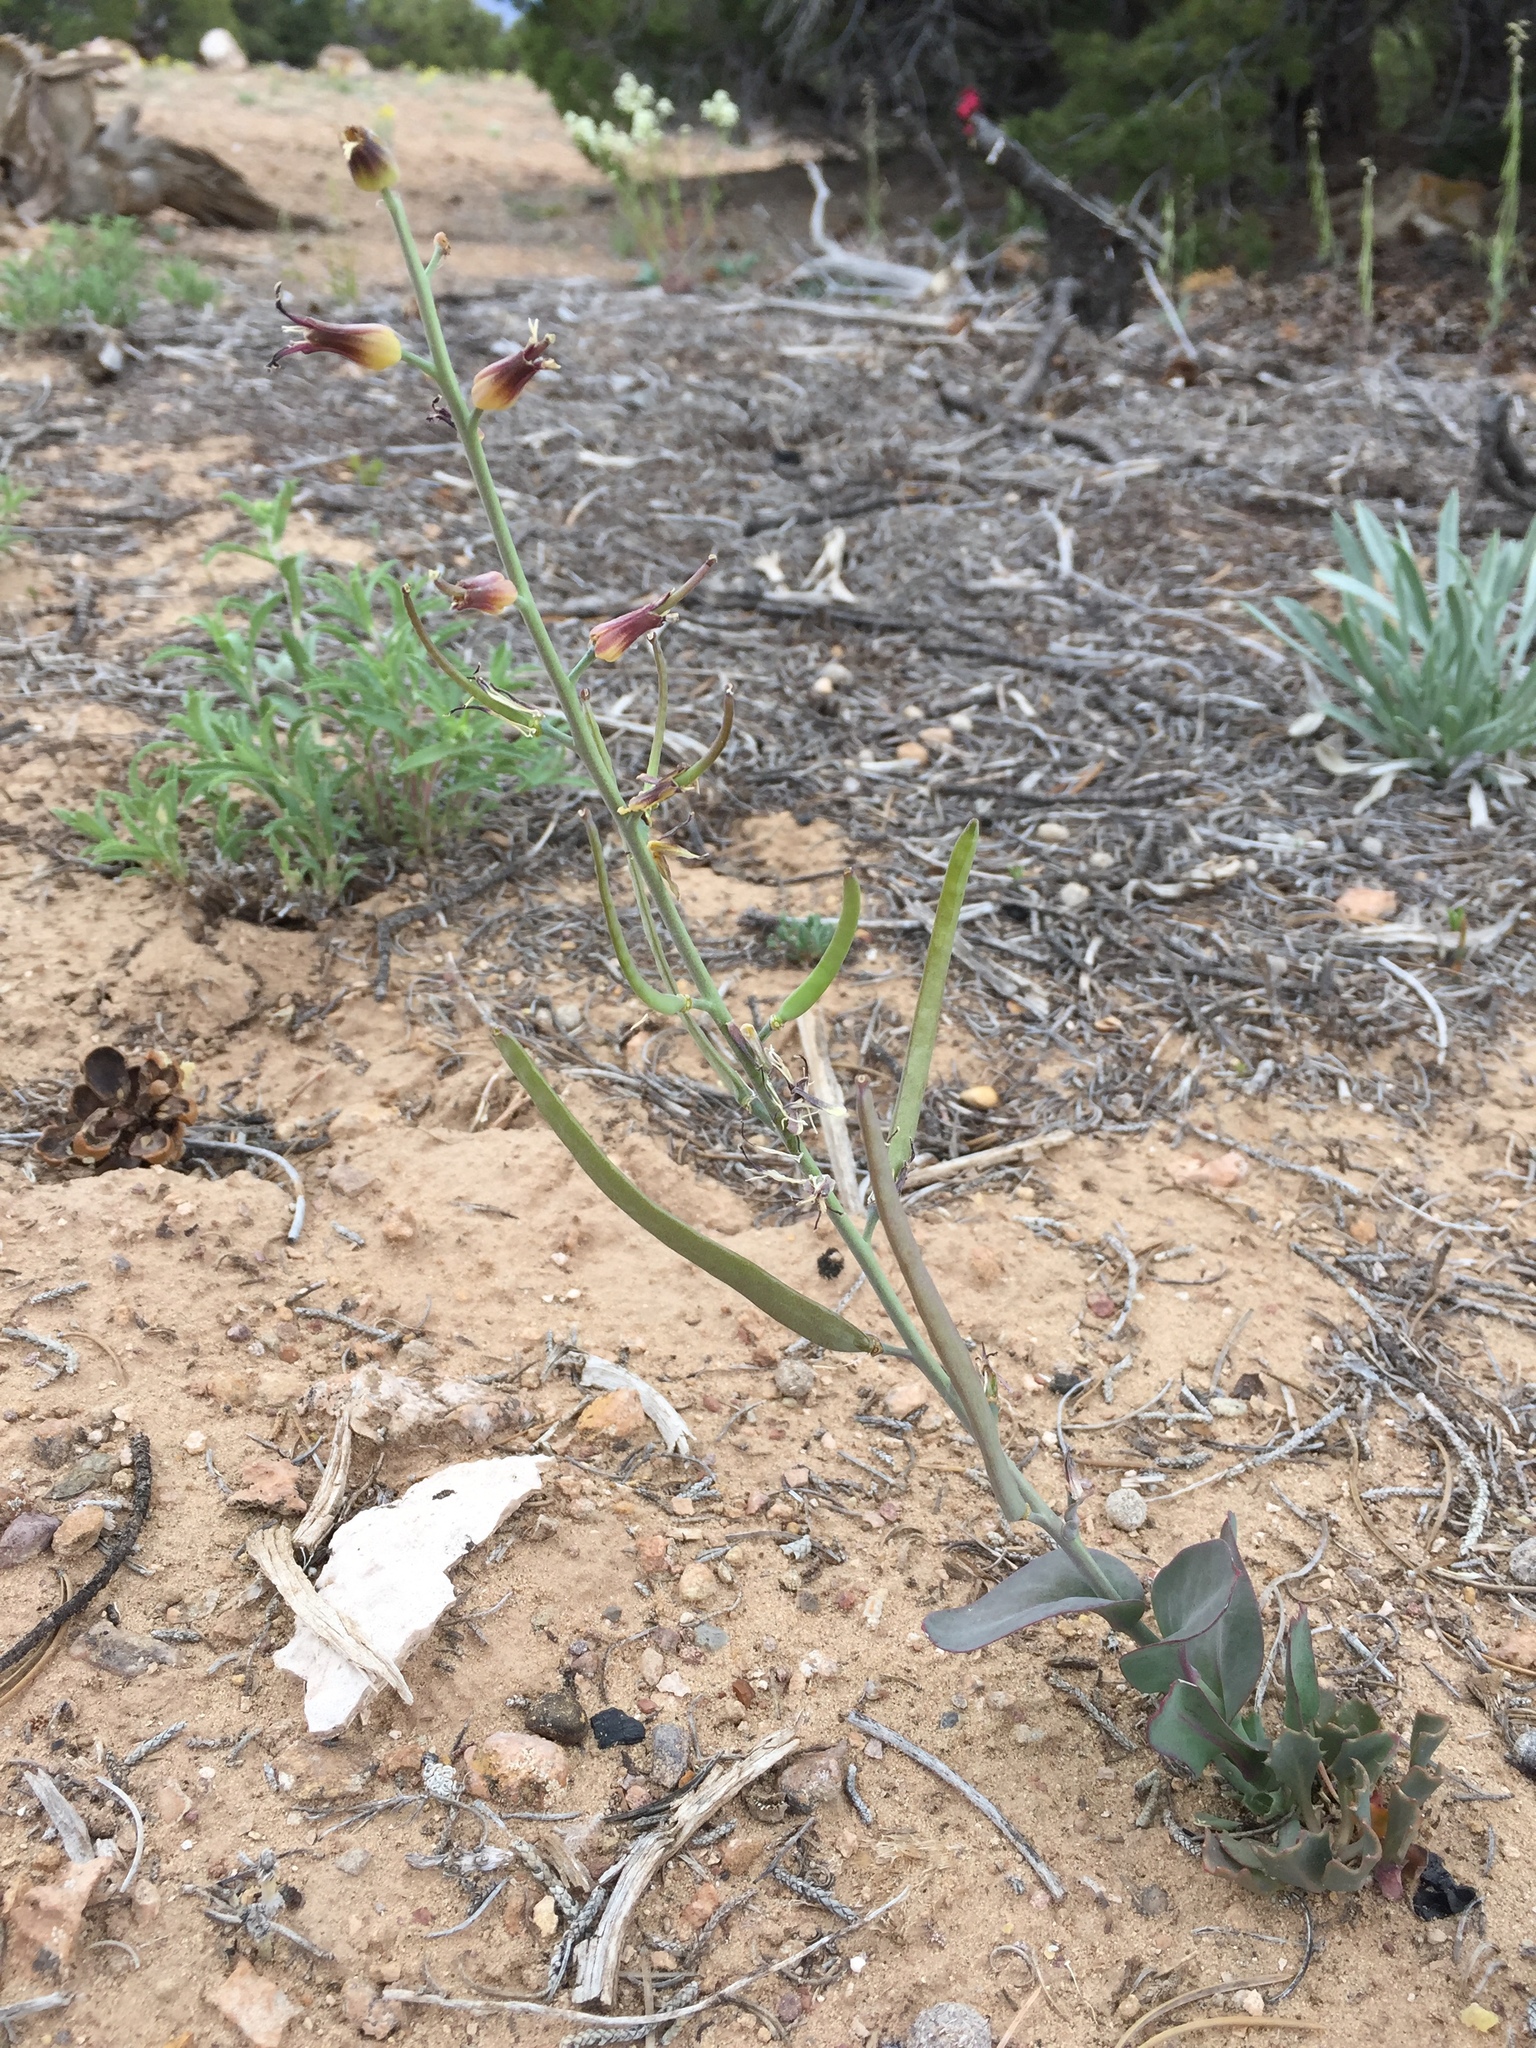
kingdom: Plantae
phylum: Tracheophyta
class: Magnoliopsida
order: Brassicales
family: Brassicaceae
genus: Streptanthus
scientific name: Streptanthus cordatus
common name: Heart-leaf jewel-flower
